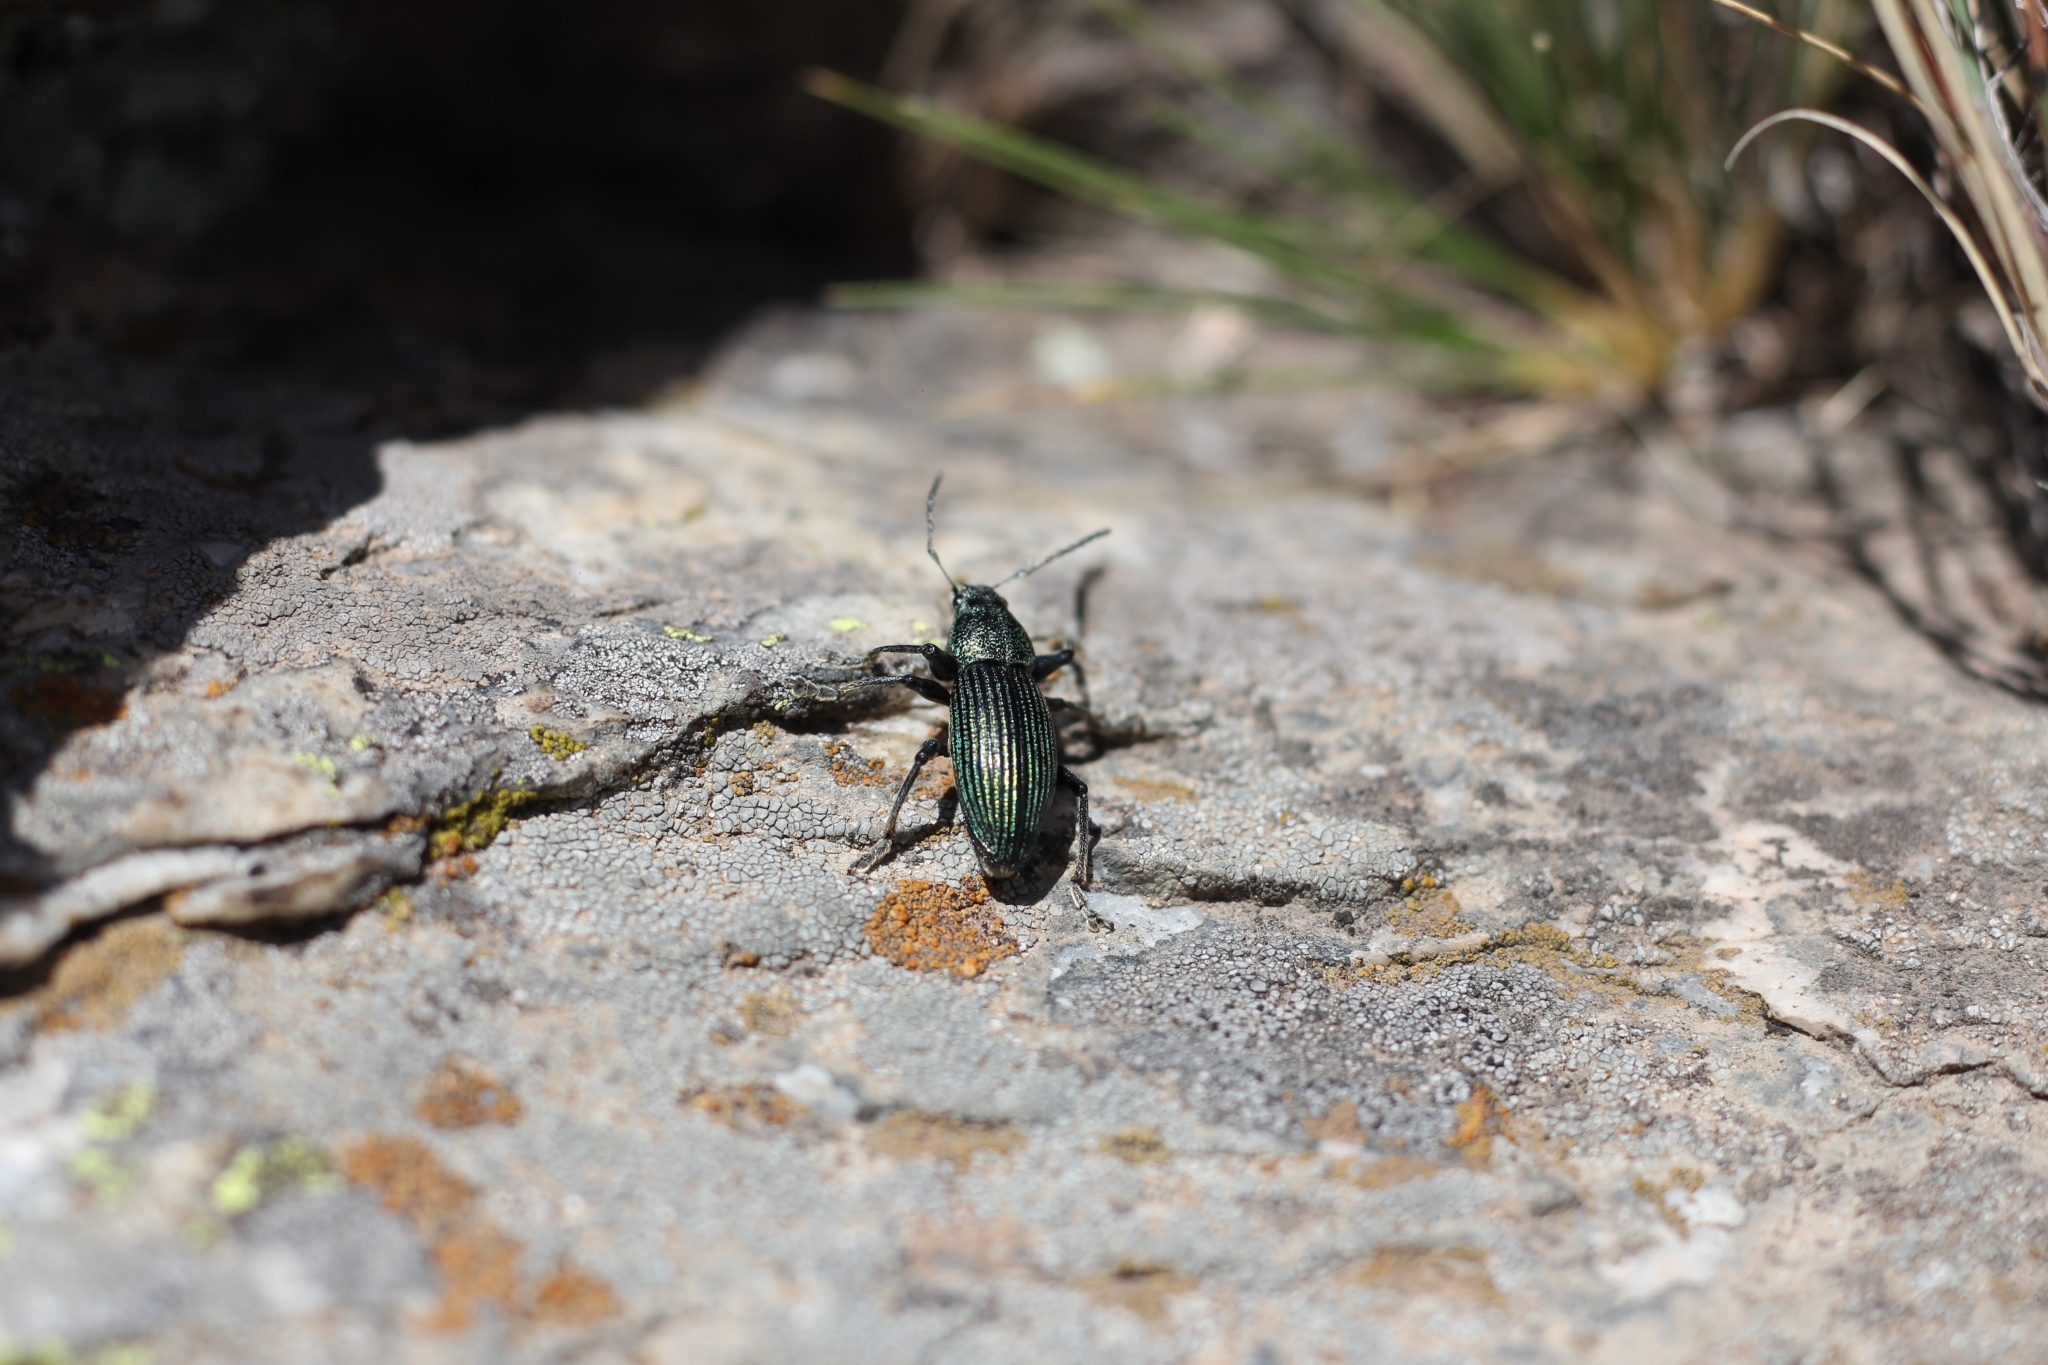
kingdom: Animalia
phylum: Arthropoda
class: Insecta
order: Coleoptera
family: Curculionidae
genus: Naupactus
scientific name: Naupactus dives
